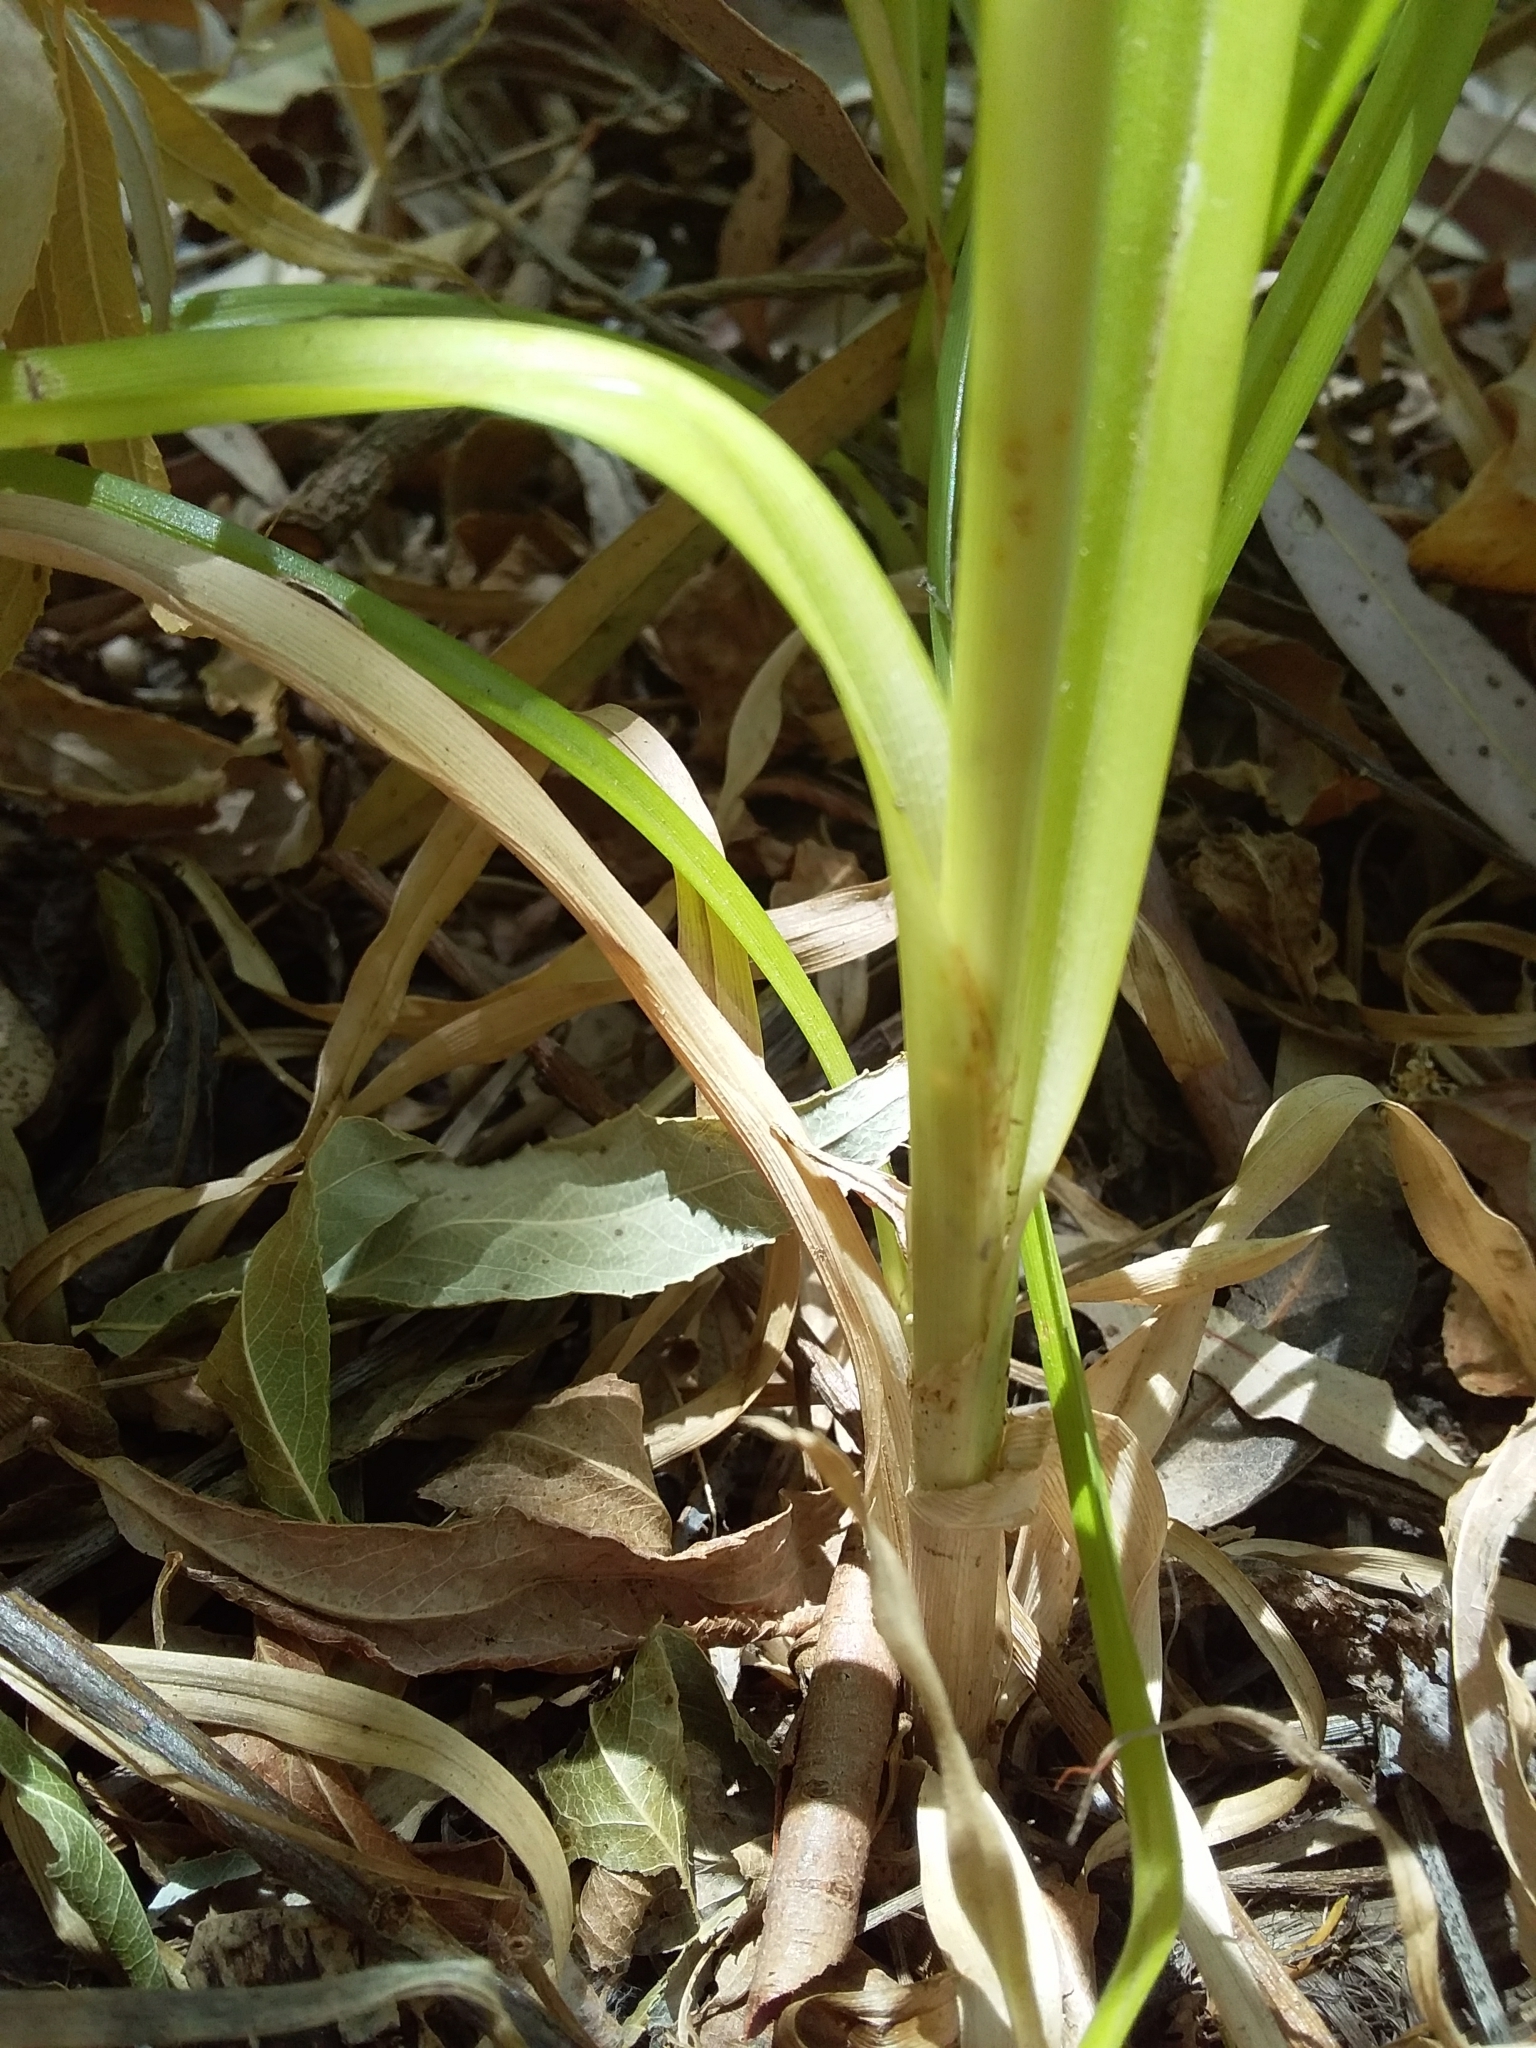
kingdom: Plantae
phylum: Tracheophyta
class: Liliopsida
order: Poales
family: Cyperaceae
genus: Cyperus
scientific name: Cyperus eragrostis
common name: Tall flatsedge
